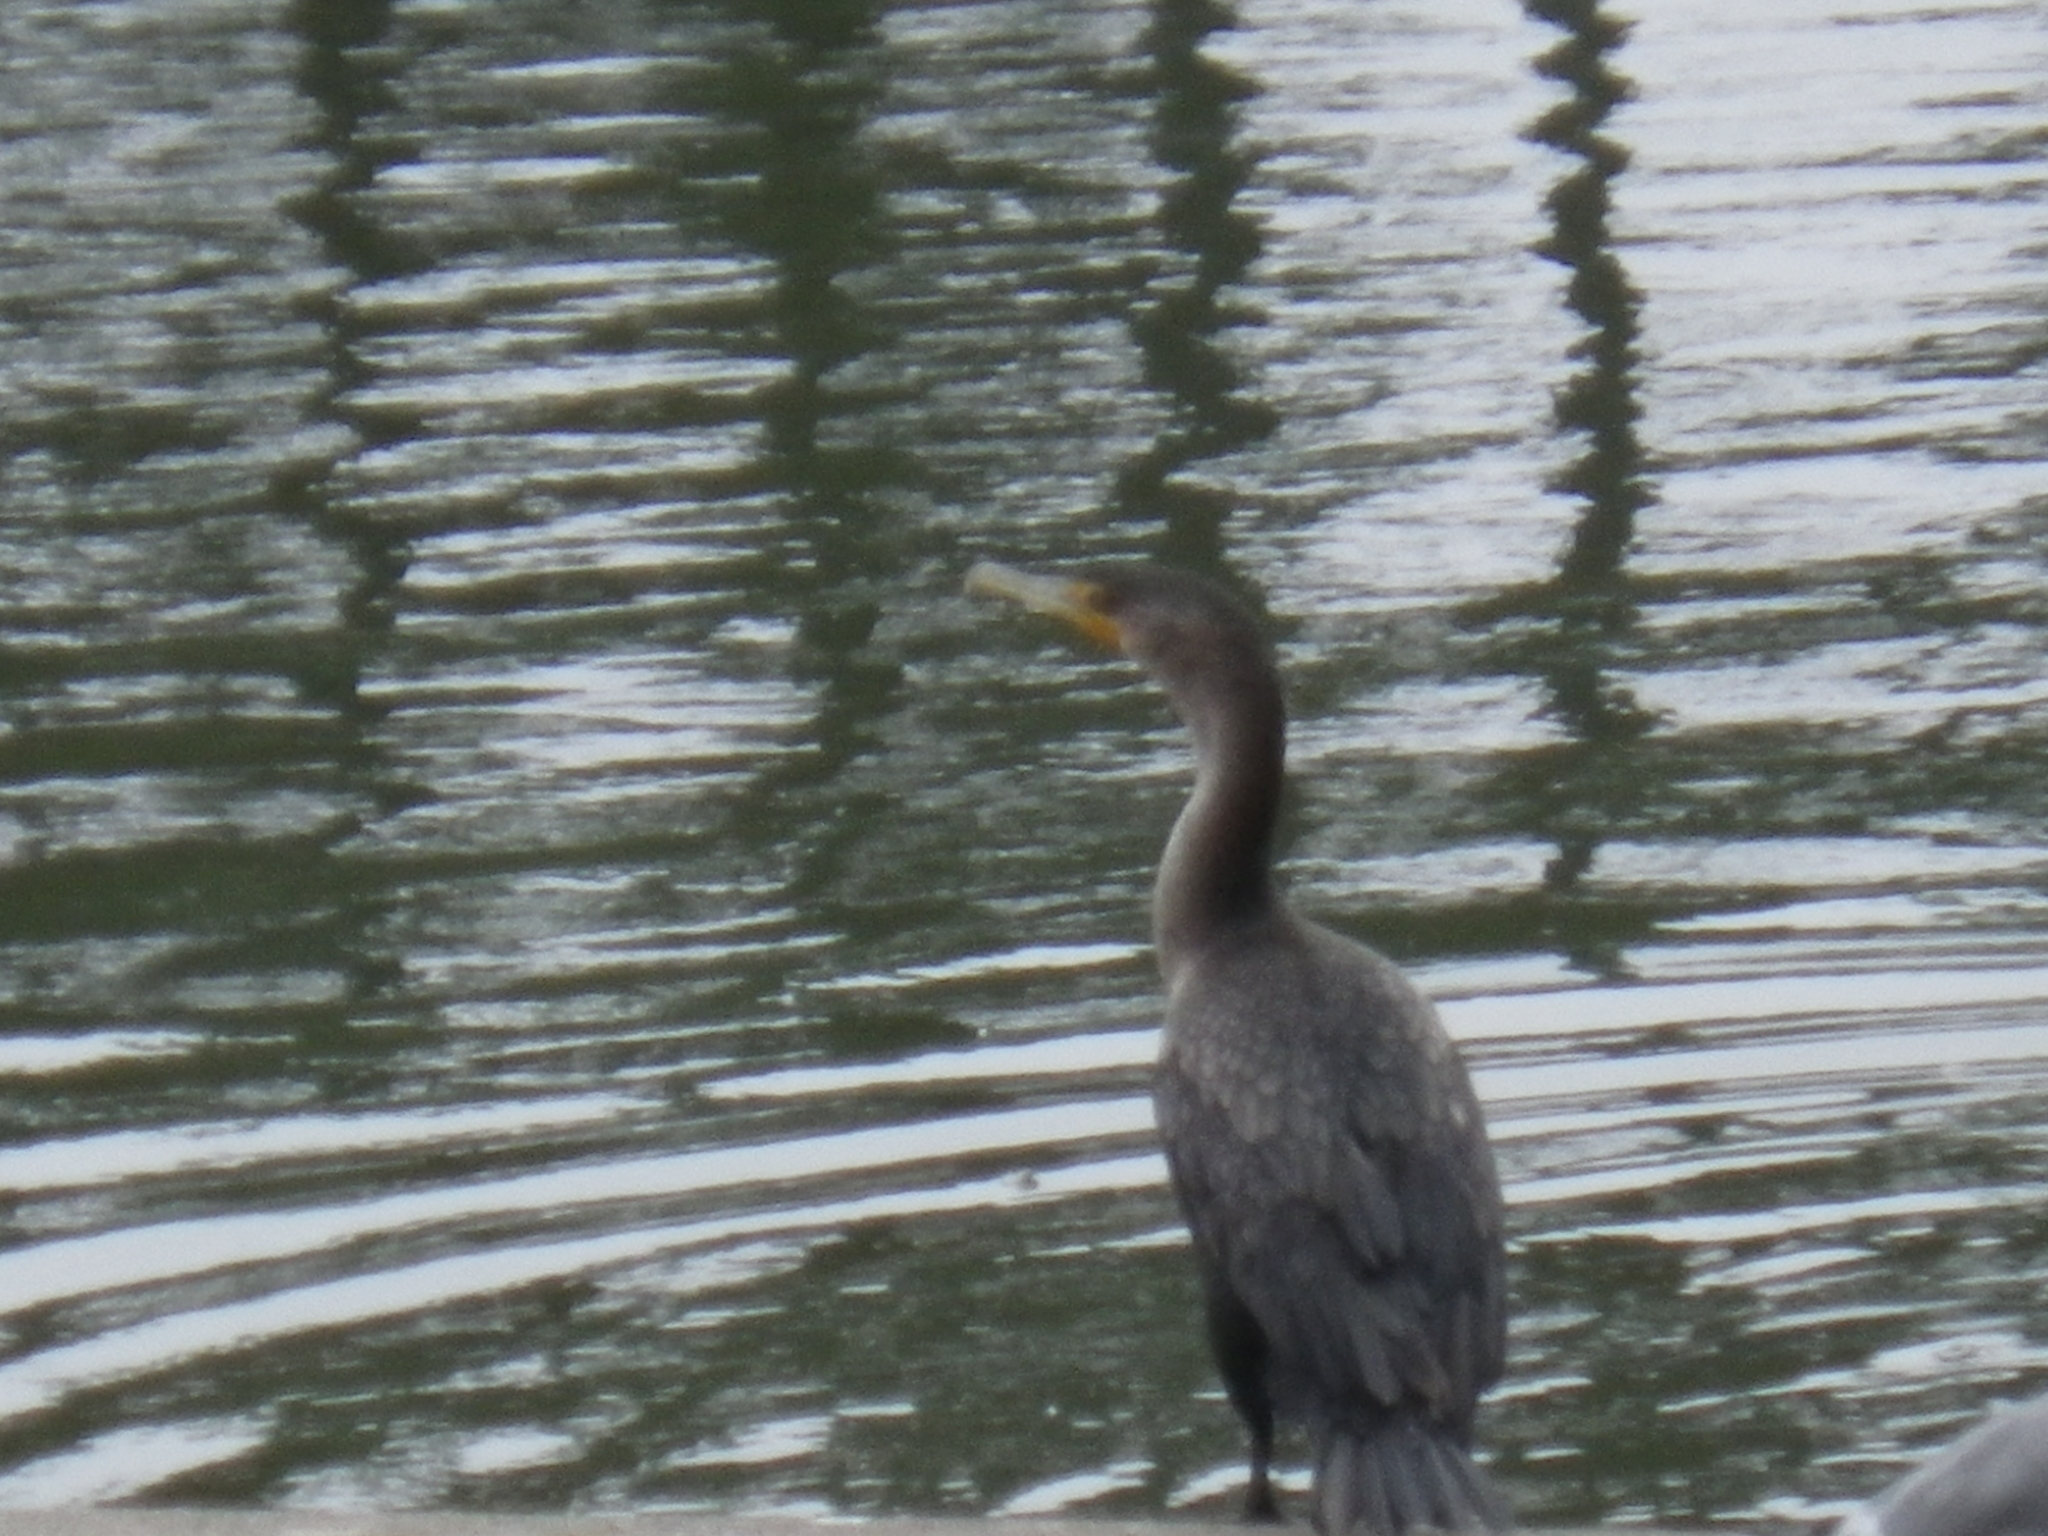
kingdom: Animalia
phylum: Chordata
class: Aves
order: Suliformes
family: Phalacrocoracidae
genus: Phalacrocorax
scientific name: Phalacrocorax auritus
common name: Double-crested cormorant
